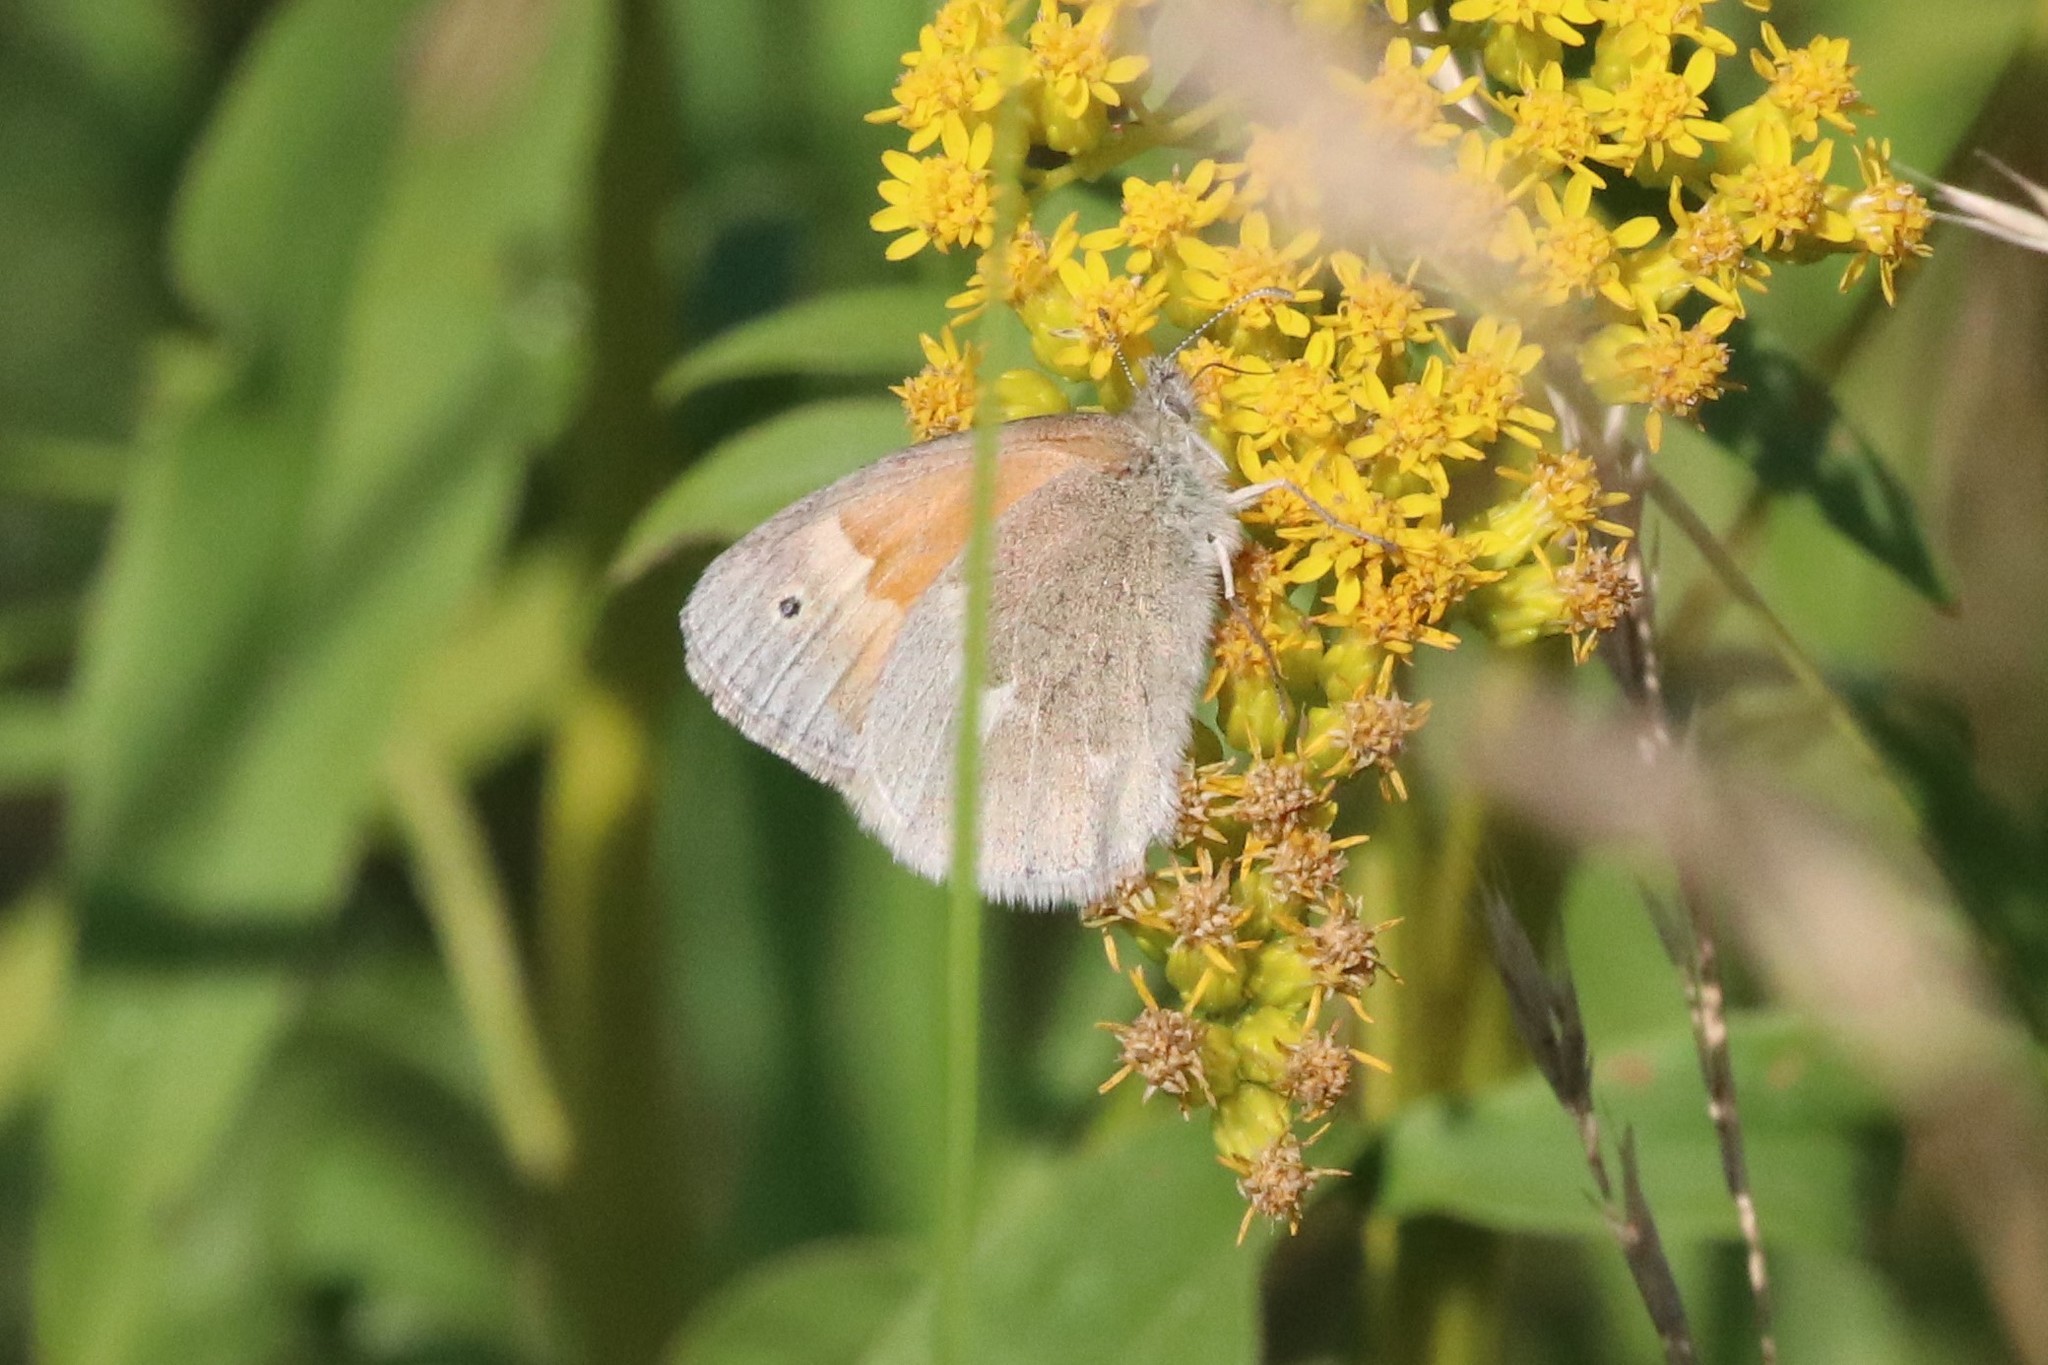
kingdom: Animalia
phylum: Arthropoda
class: Insecta
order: Lepidoptera
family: Nymphalidae
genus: Coenonympha
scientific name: Coenonympha california
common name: Common ringlet
